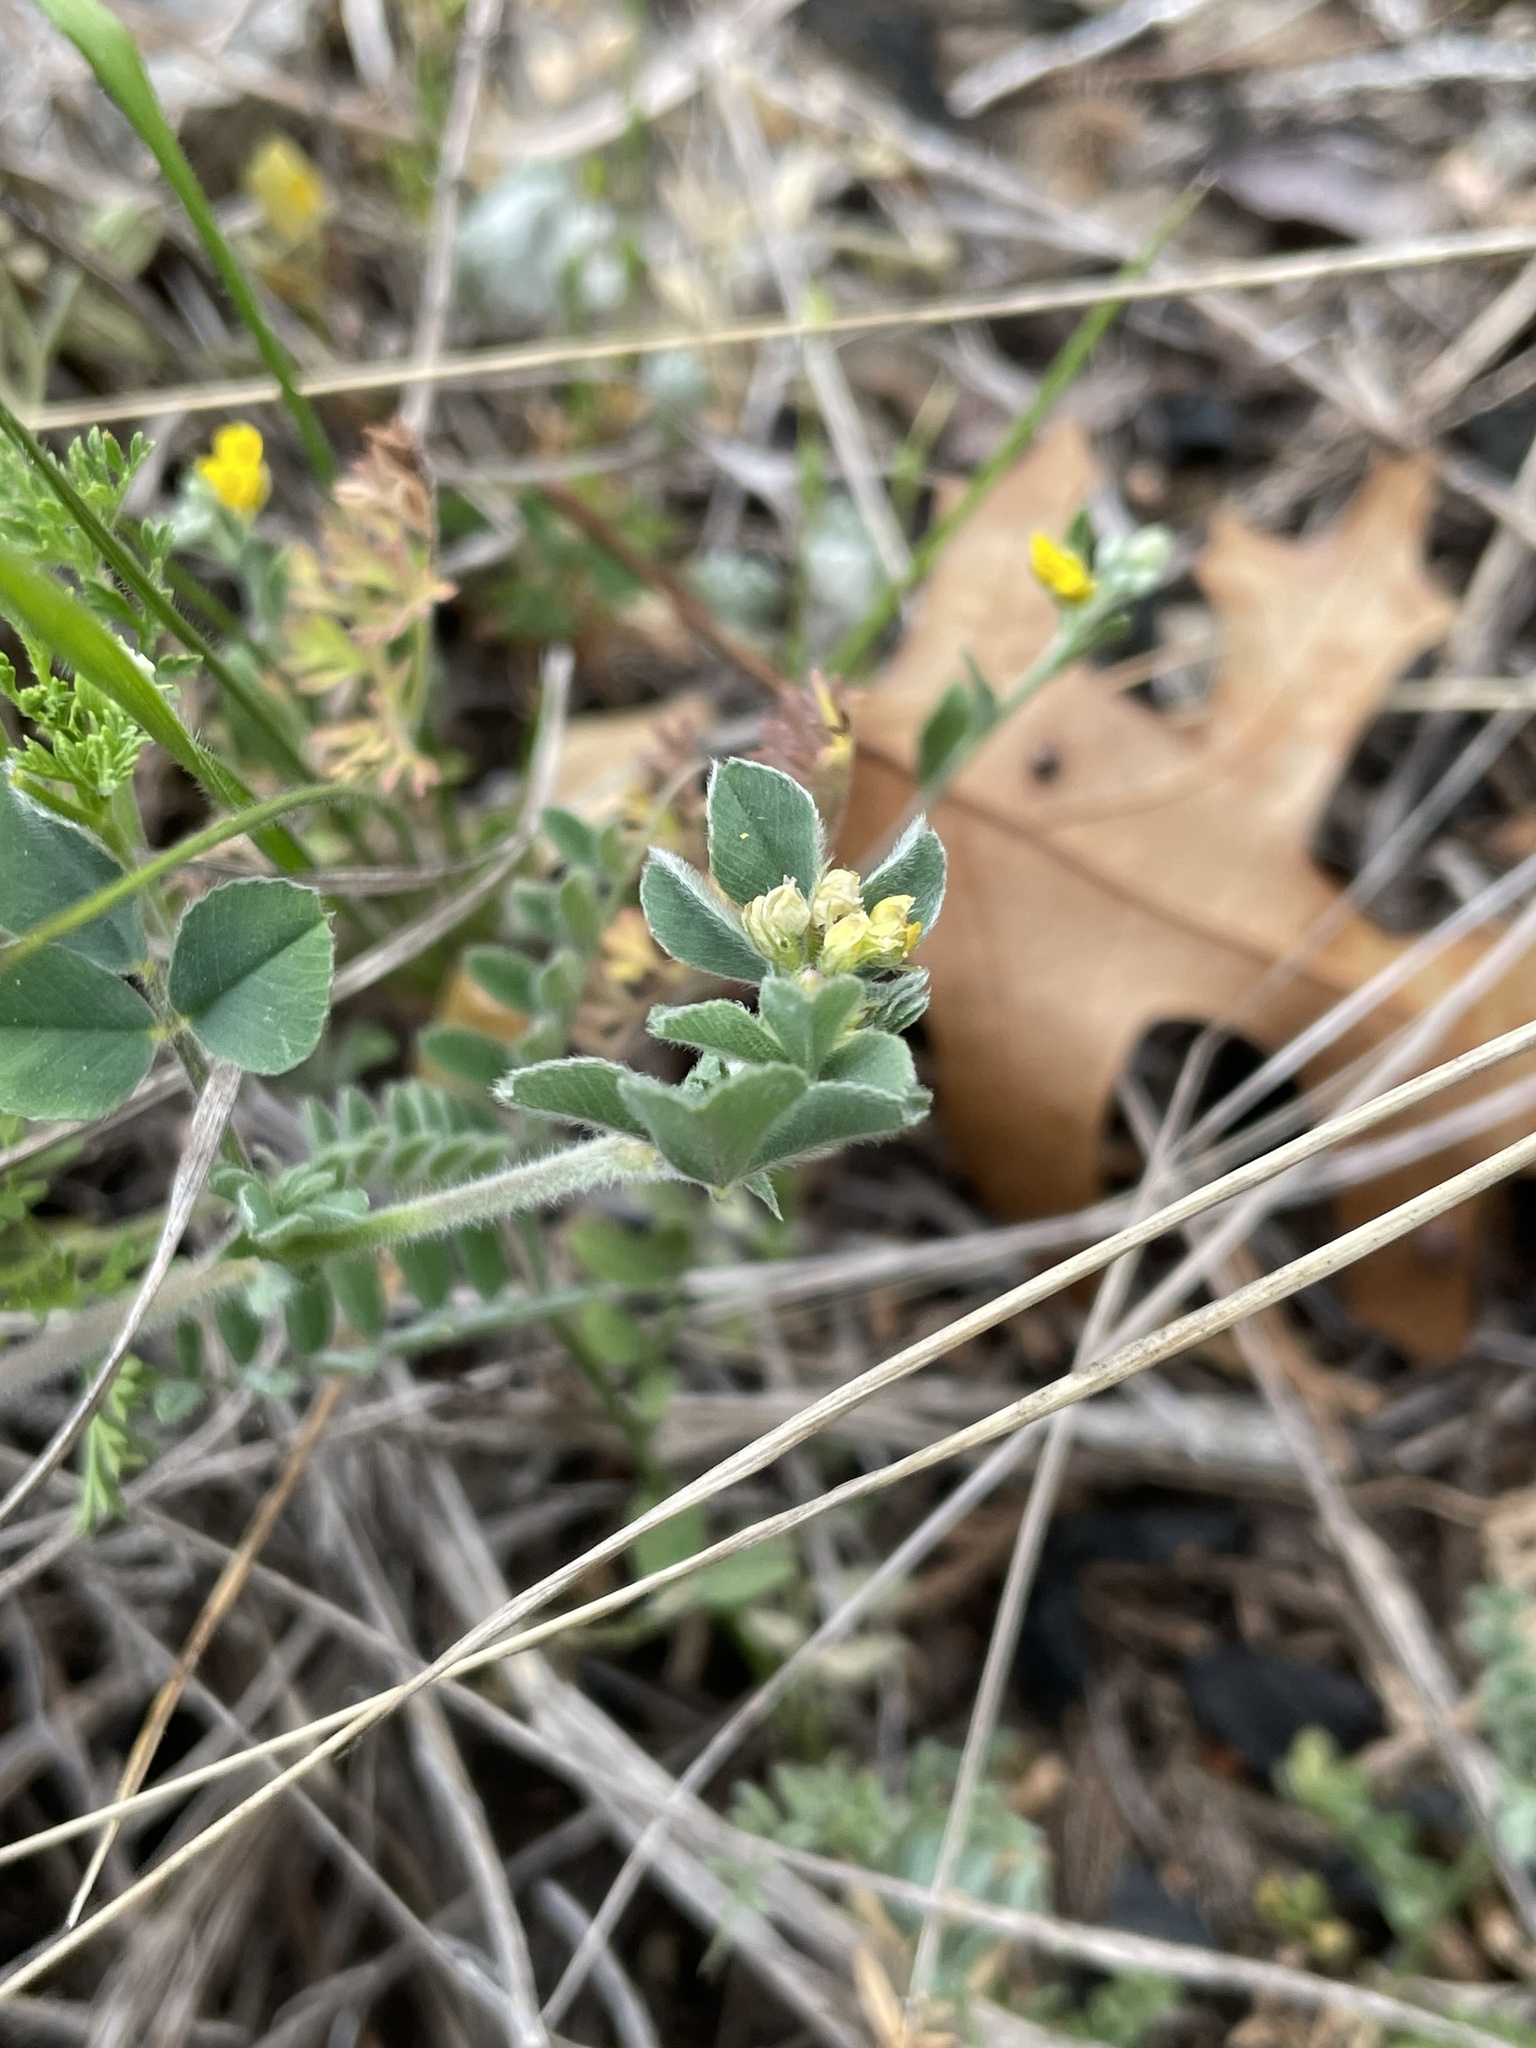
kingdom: Plantae
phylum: Tracheophyta
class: Magnoliopsida
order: Fabales
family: Fabaceae
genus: Medicago
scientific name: Medicago minima
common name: Little bur-clover
